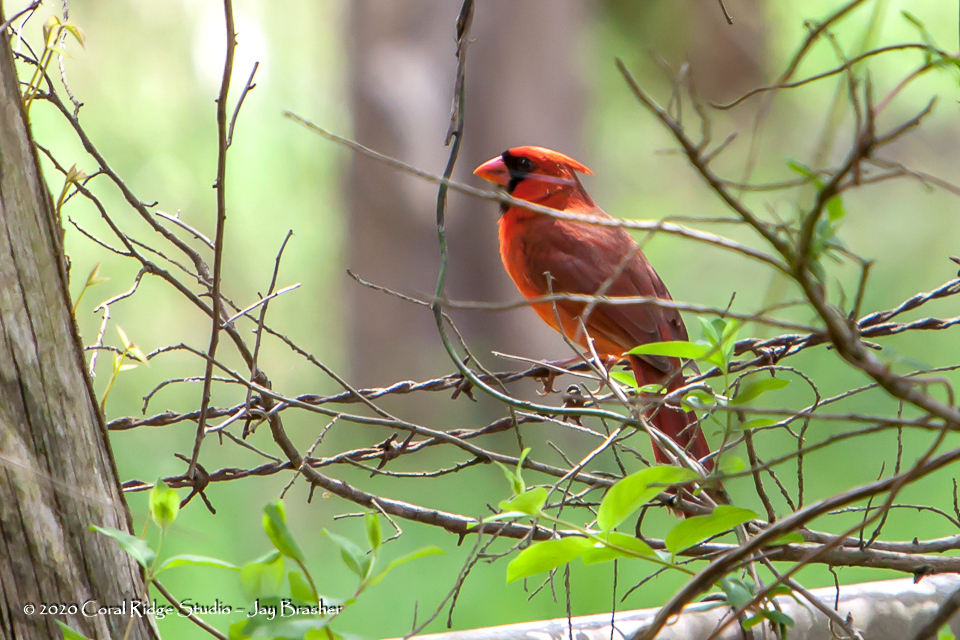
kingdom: Animalia
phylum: Chordata
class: Aves
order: Passeriformes
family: Cardinalidae
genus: Cardinalis
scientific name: Cardinalis cardinalis
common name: Northern cardinal
